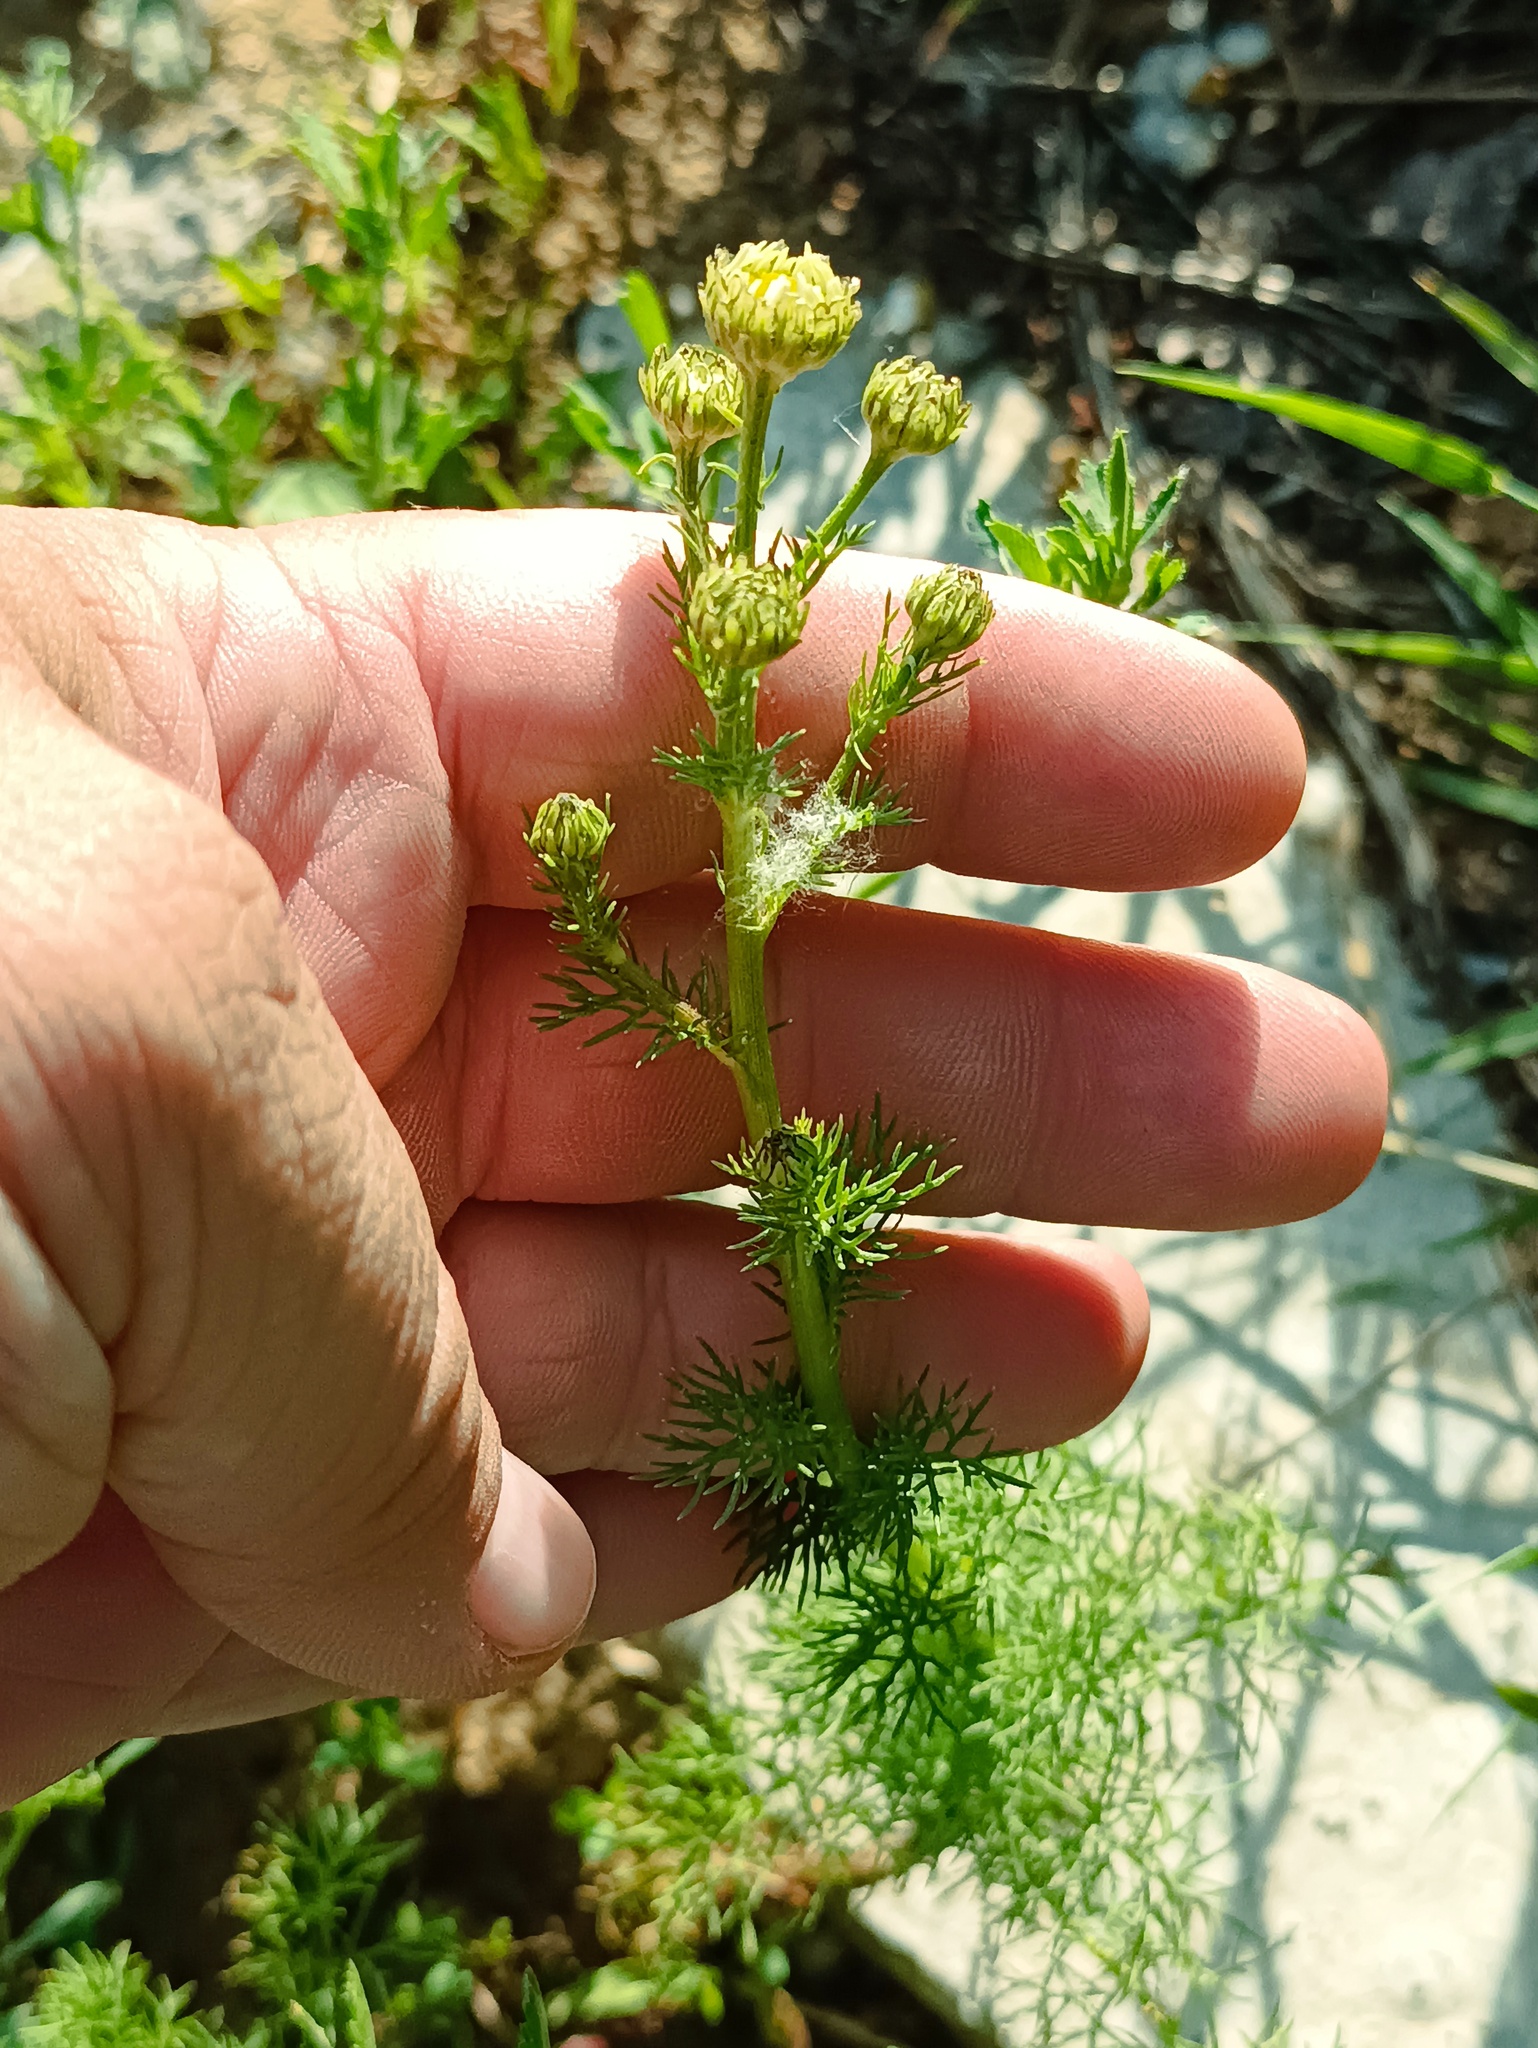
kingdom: Plantae
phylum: Tracheophyta
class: Magnoliopsida
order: Asterales
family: Asteraceae
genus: Tripleurospermum
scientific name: Tripleurospermum inodorum
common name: Scentless mayweed
